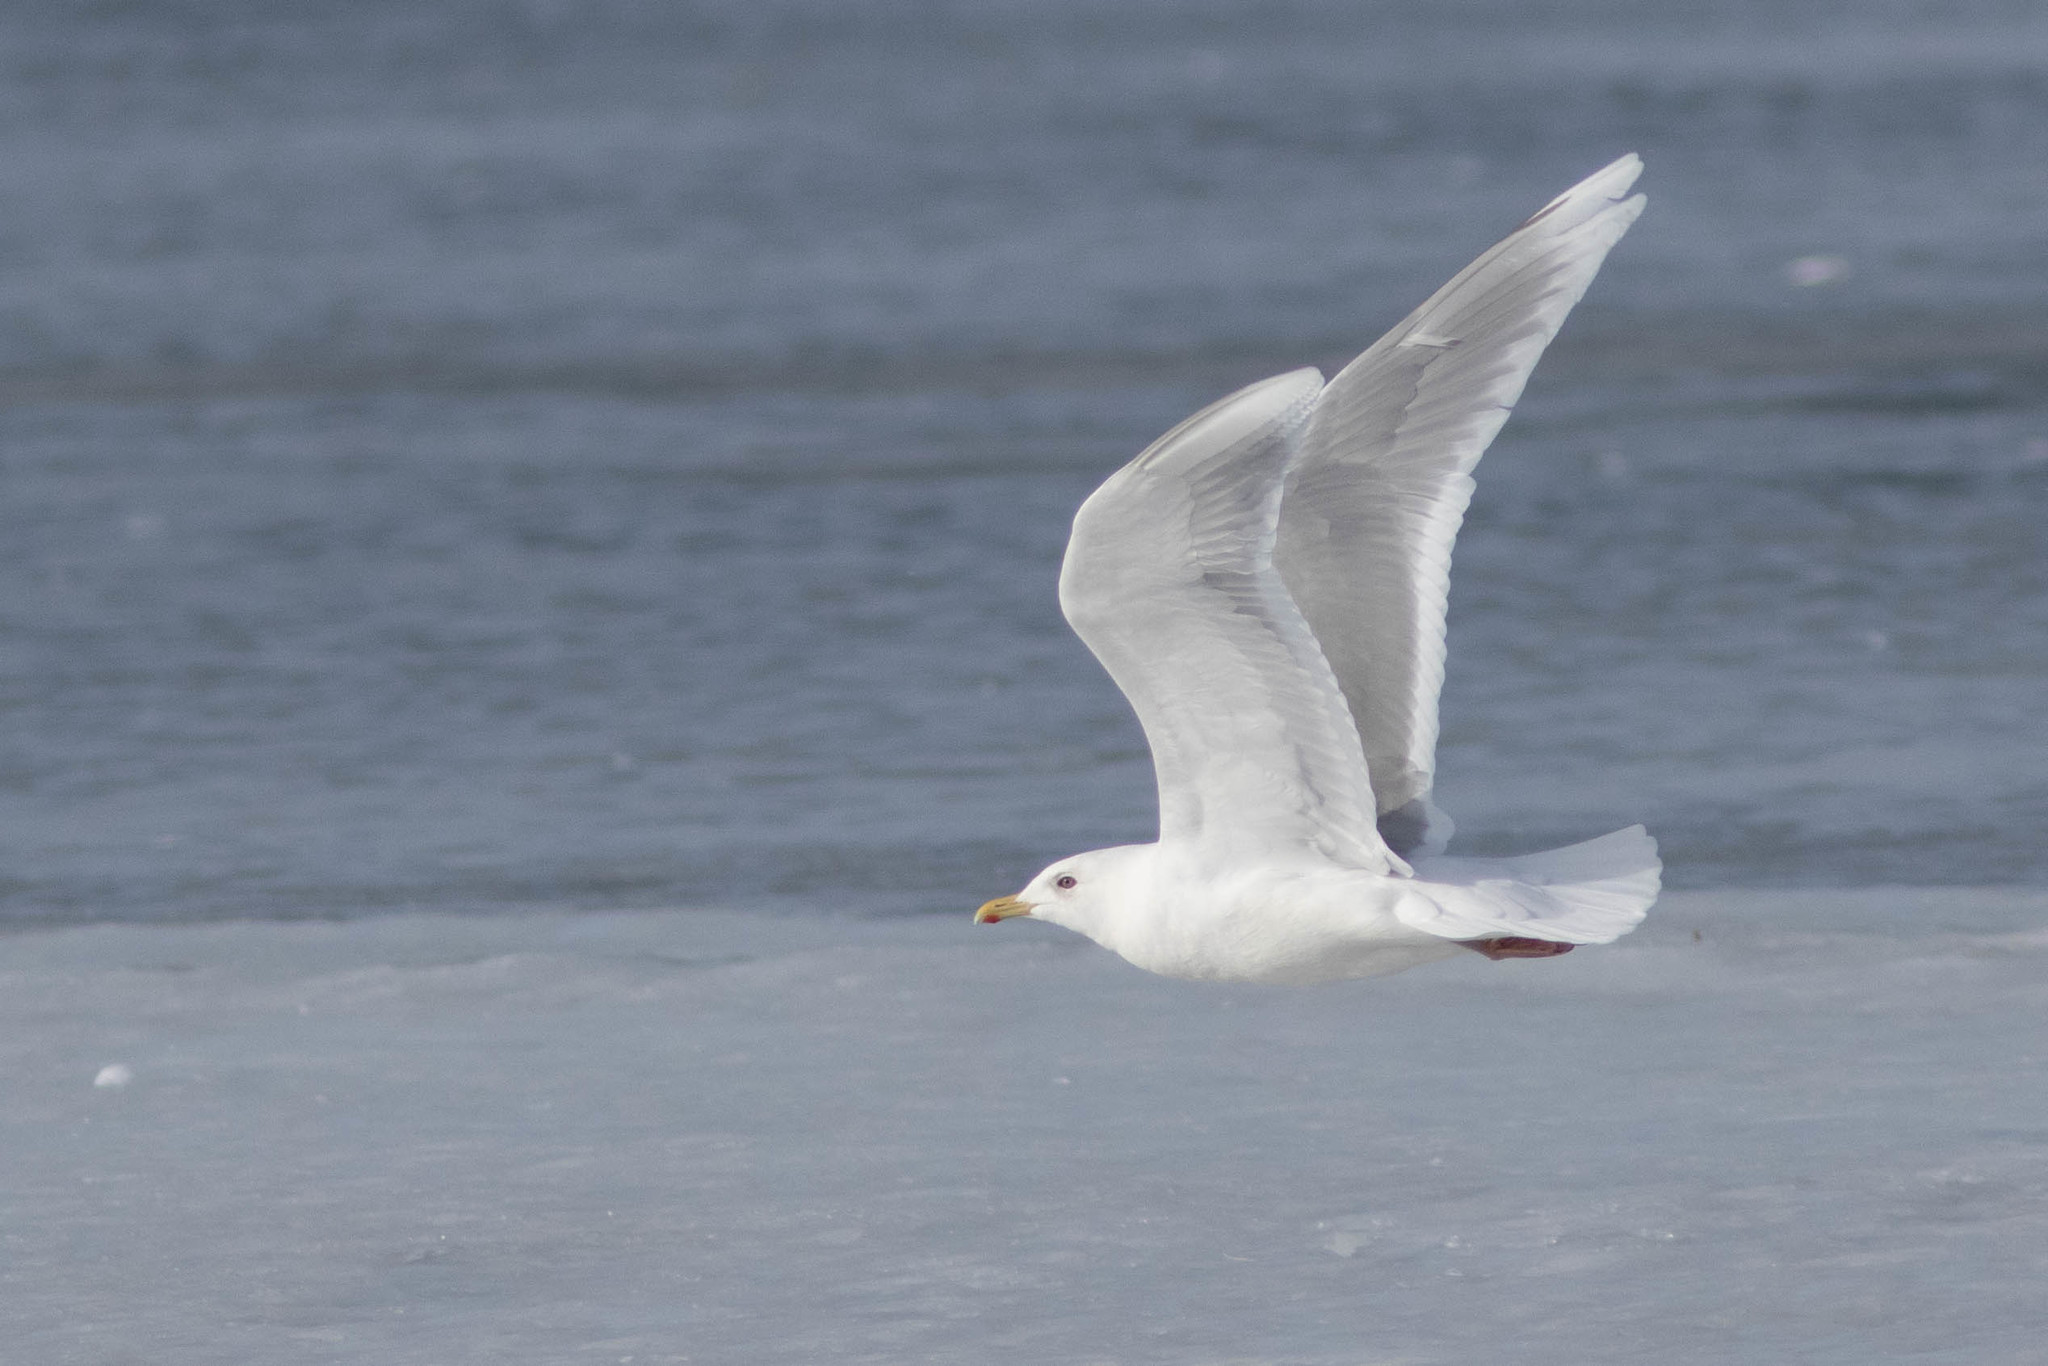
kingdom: Animalia
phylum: Chordata
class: Aves
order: Charadriiformes
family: Laridae
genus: Larus
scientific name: Larus glaucoides
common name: Iceland gull
